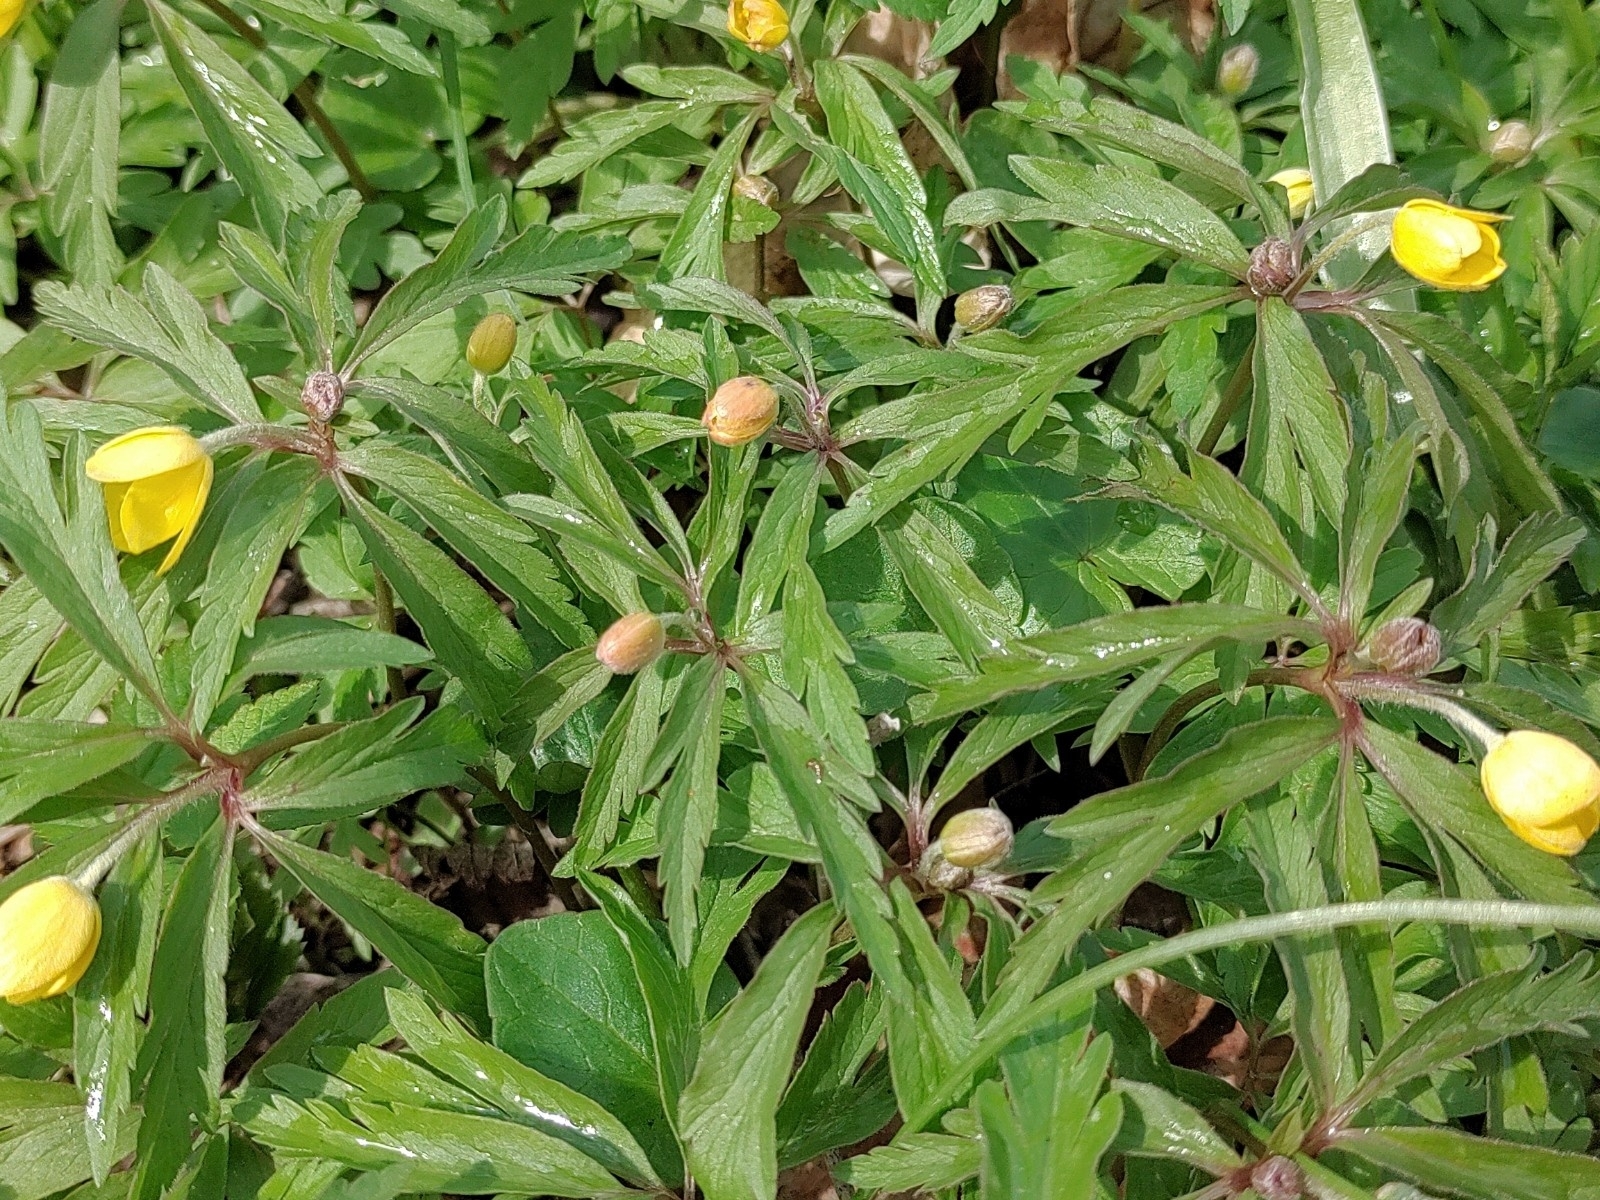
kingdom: Plantae
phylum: Tracheophyta
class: Magnoliopsida
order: Ranunculales
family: Ranunculaceae
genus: Anemone
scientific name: Anemone ranunculoides
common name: Yellow anemone
